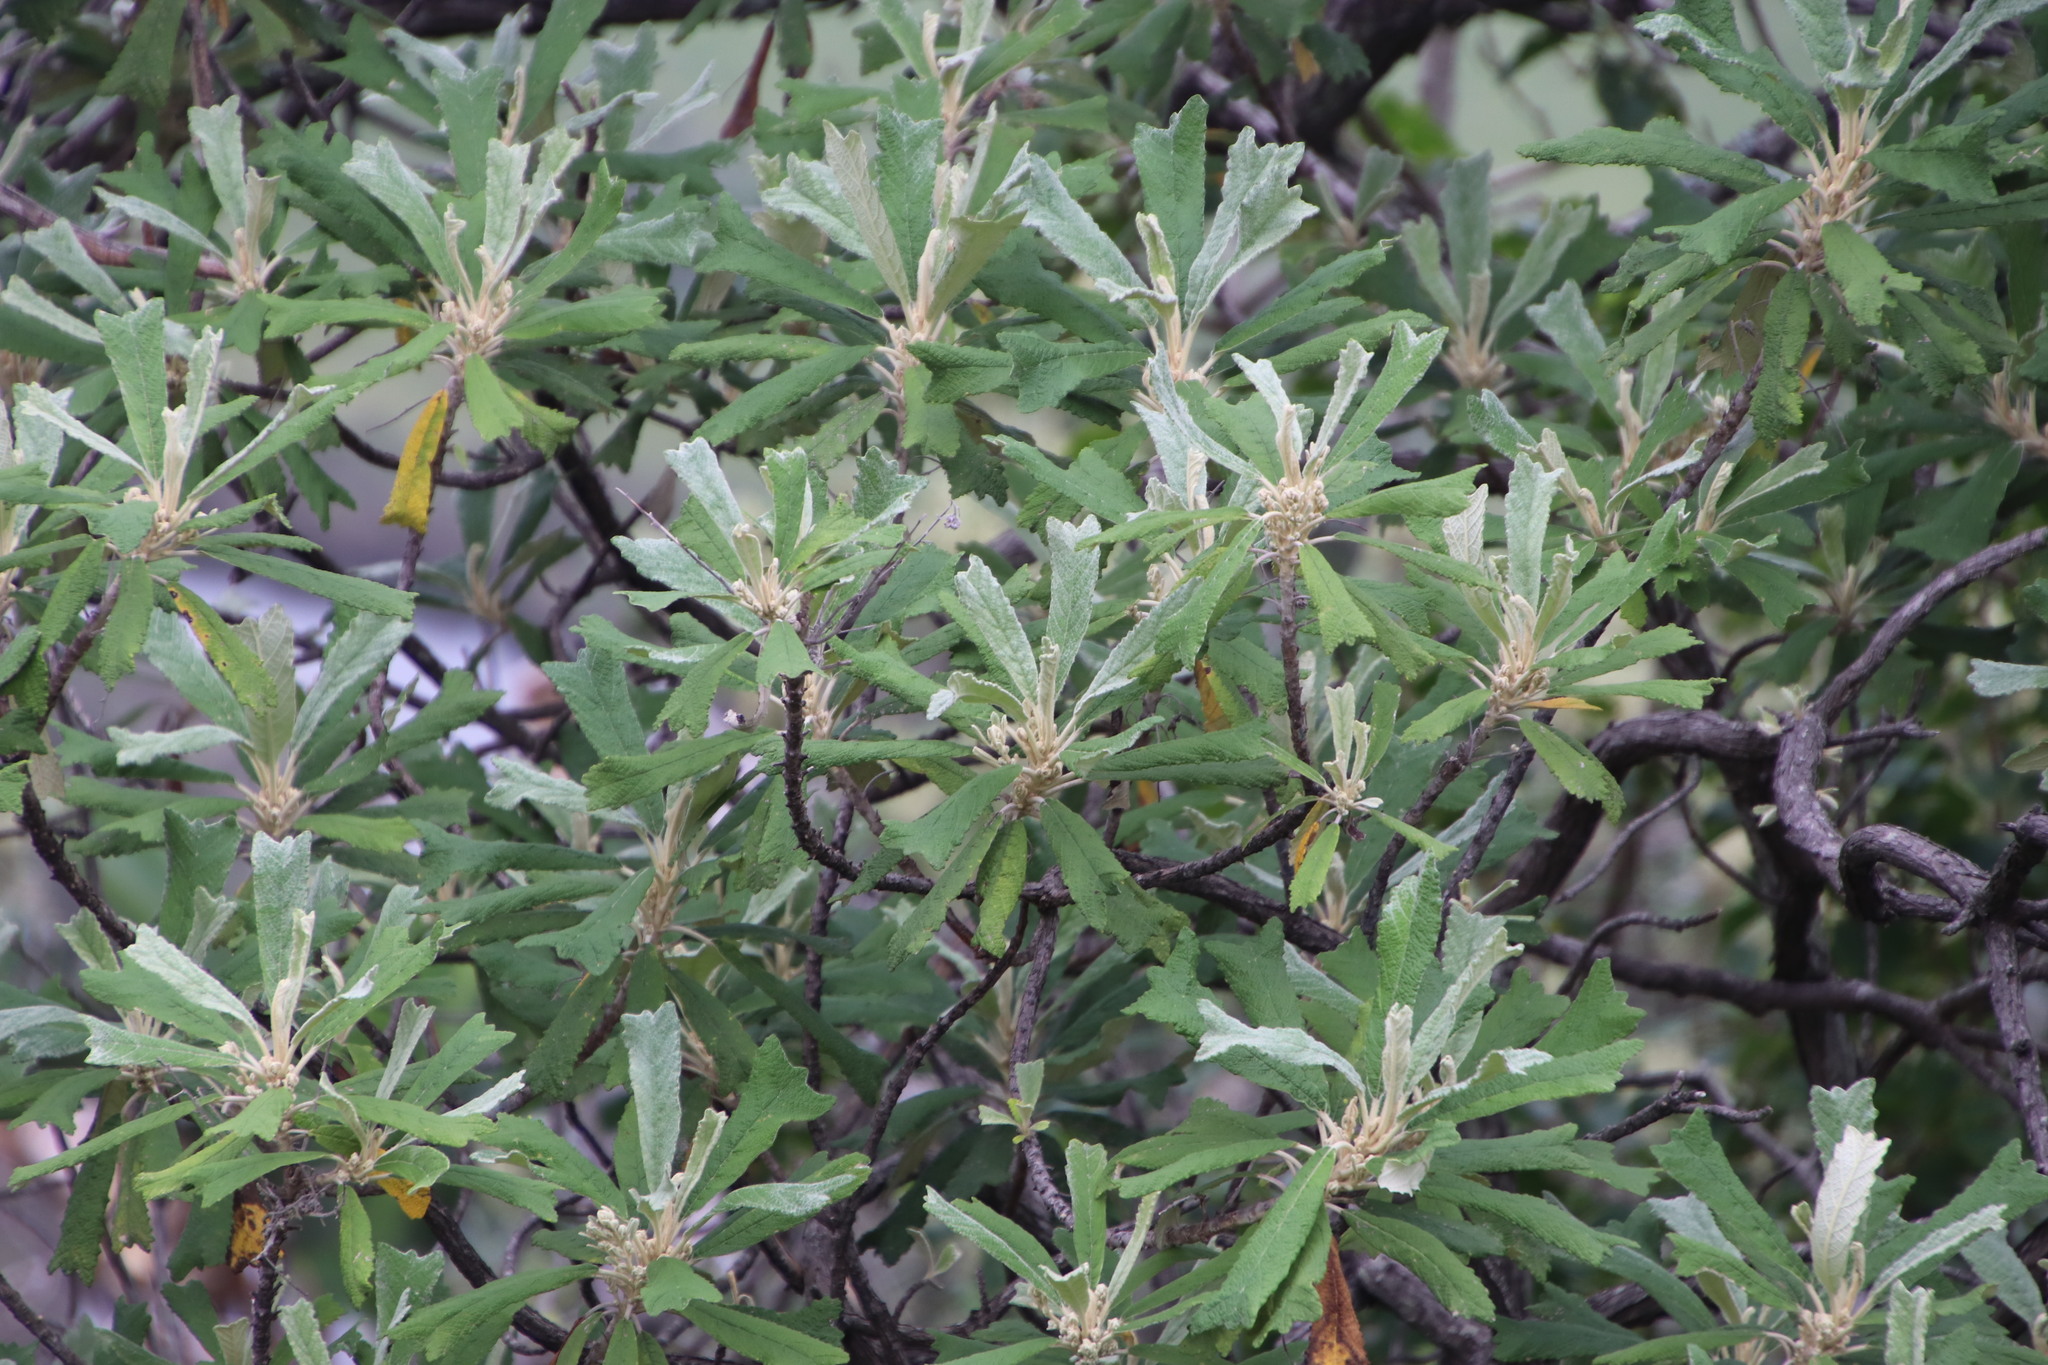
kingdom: Plantae
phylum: Tracheophyta
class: Magnoliopsida
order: Asterales
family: Asteraceae
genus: Tarchonanthus
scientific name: Tarchonanthus trilobus
